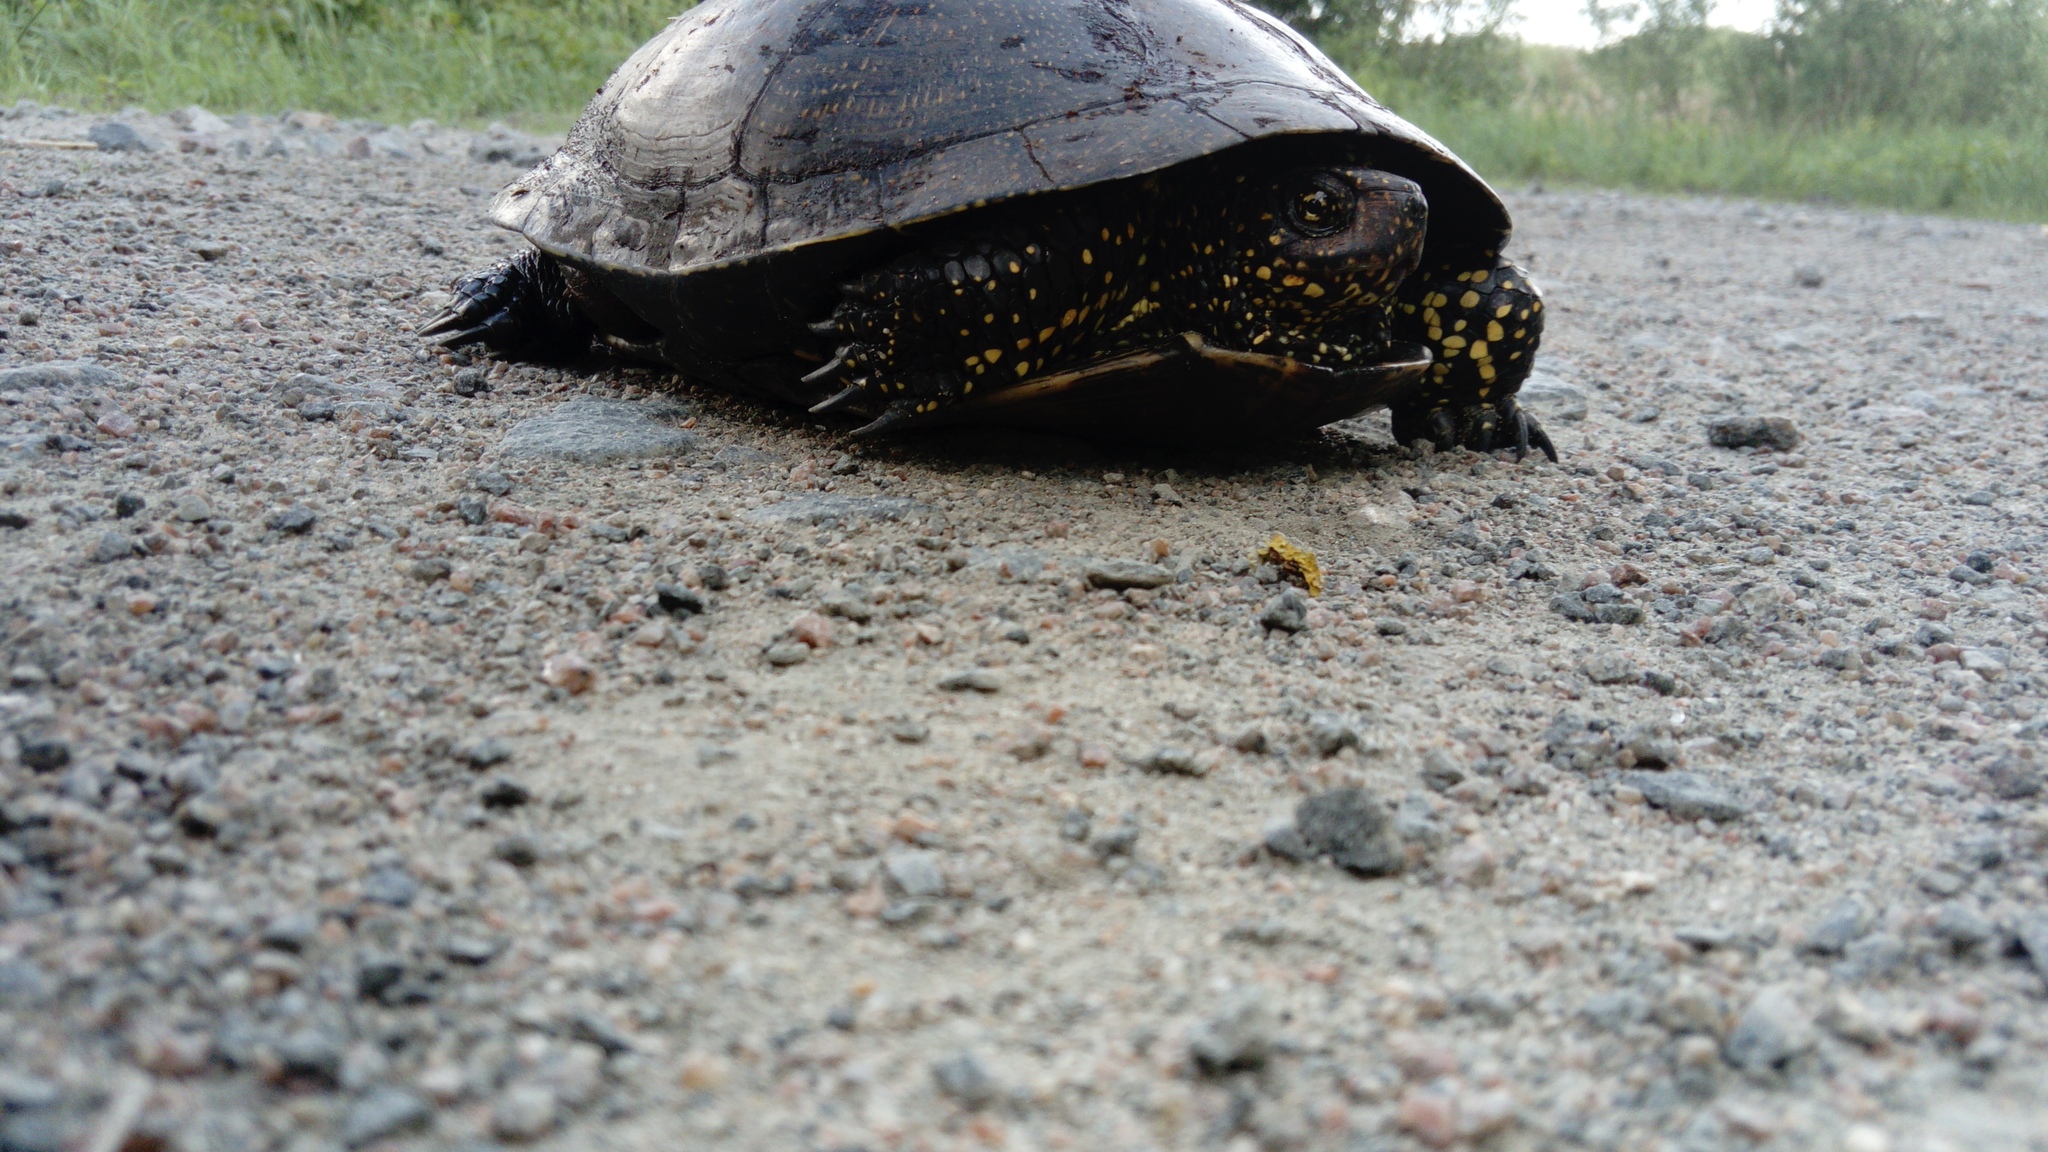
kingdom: Animalia
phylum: Chordata
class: Testudines
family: Emydidae
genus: Emys
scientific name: Emys orbicularis
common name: European pond turtle
